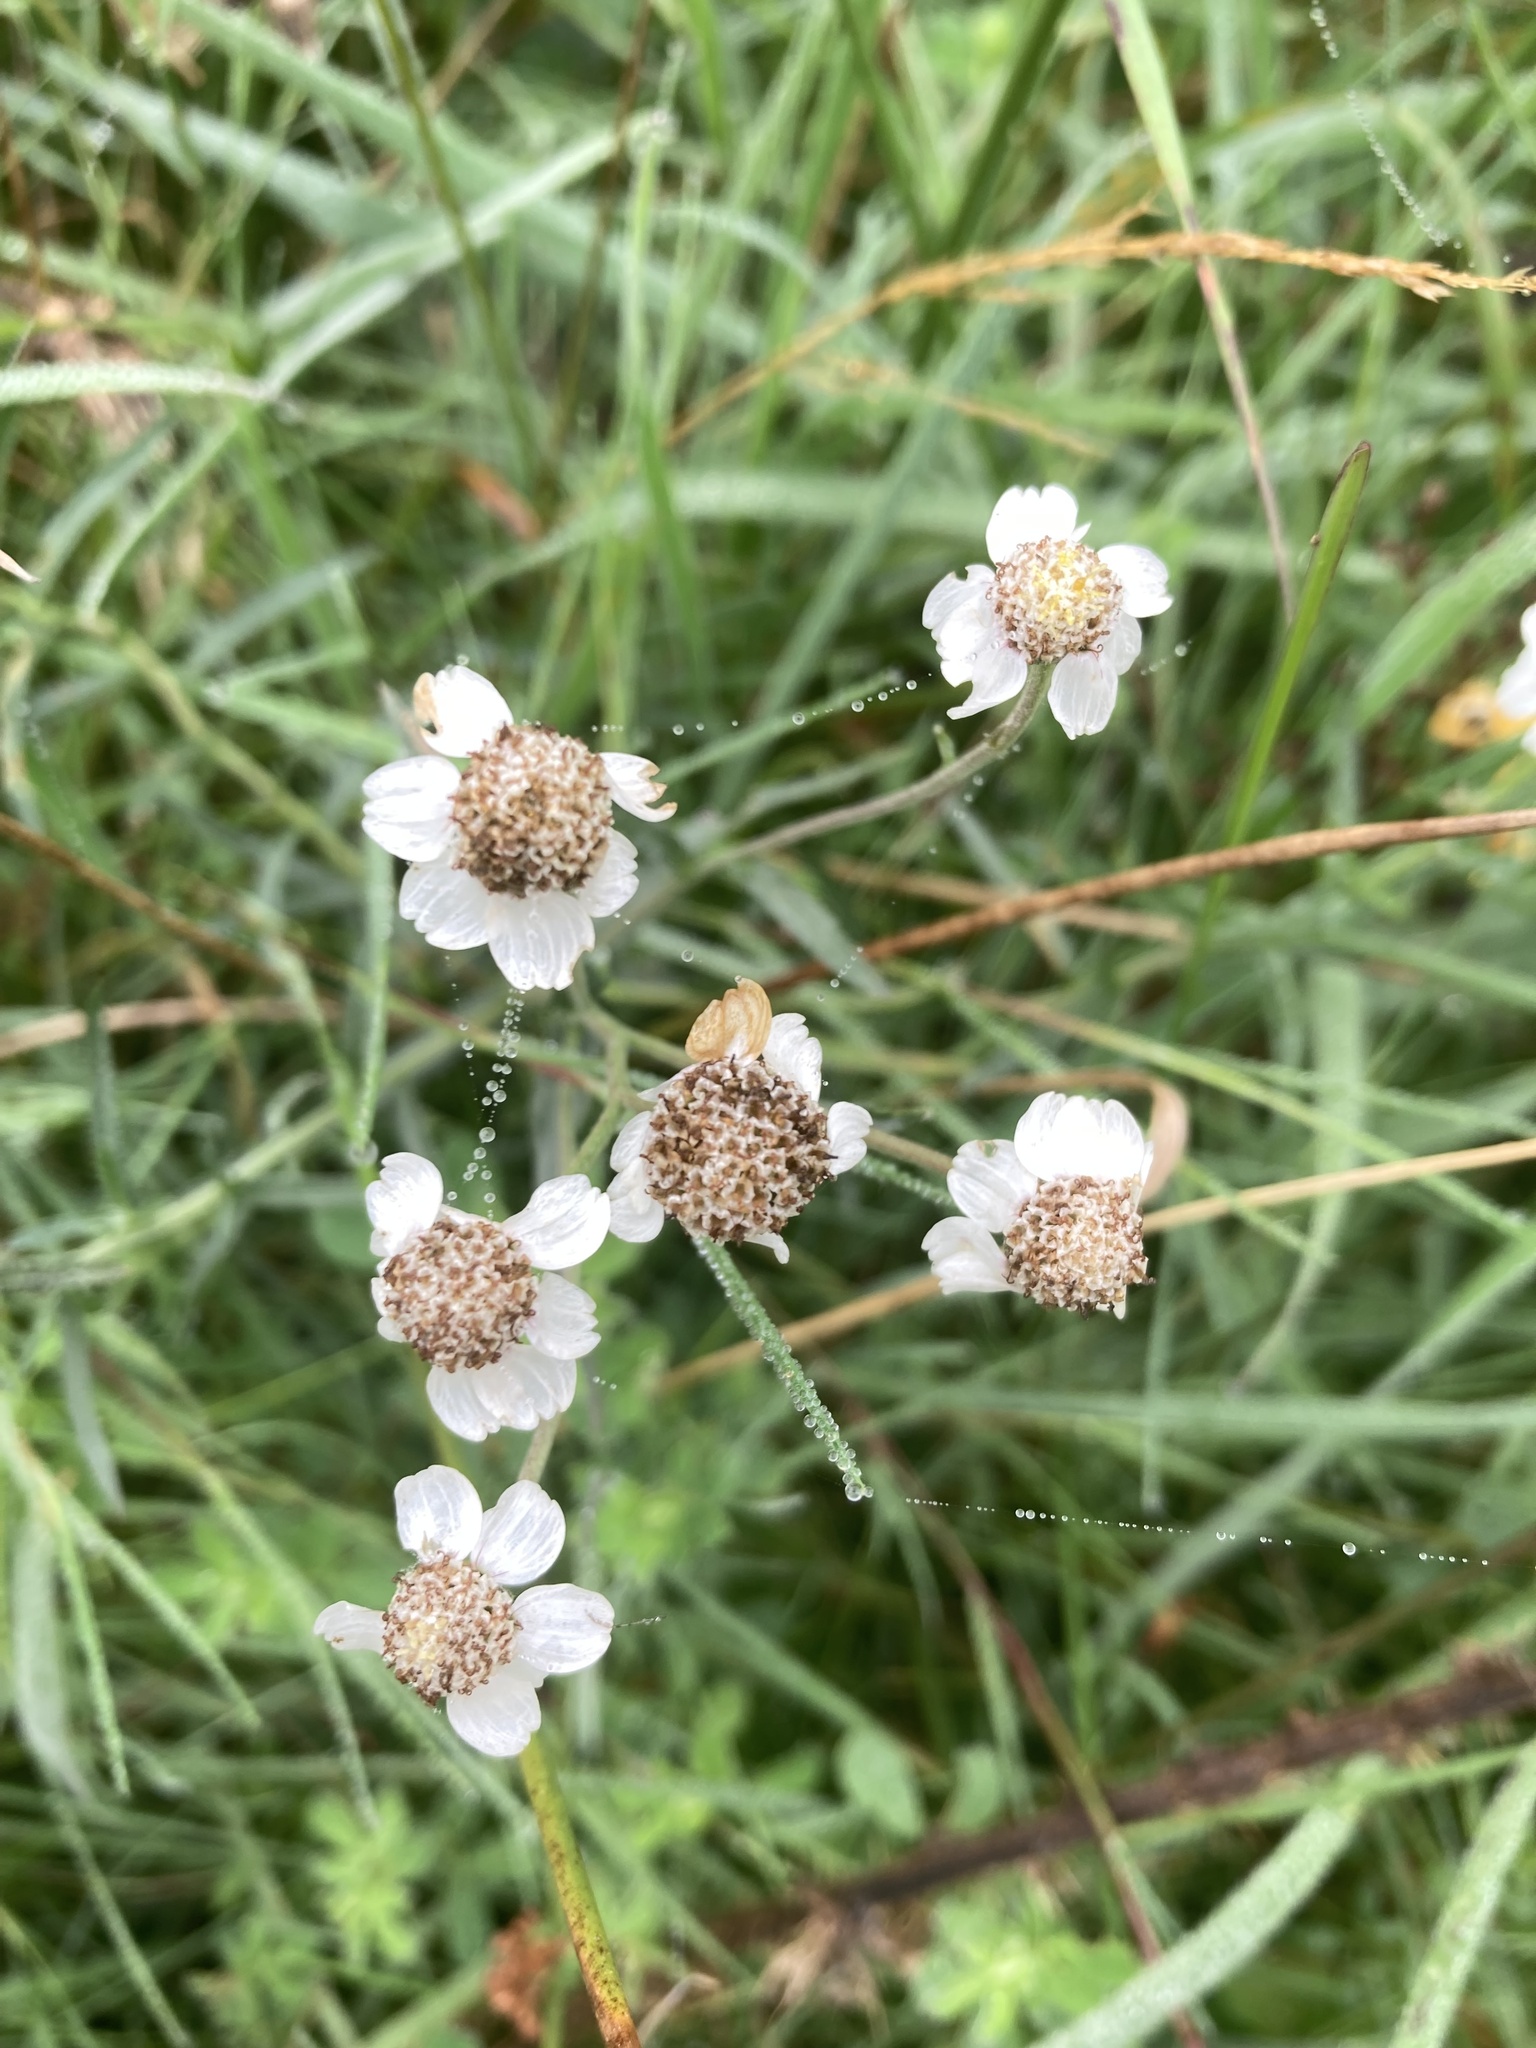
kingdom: Plantae
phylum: Tracheophyta
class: Magnoliopsida
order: Asterales
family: Asteraceae
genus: Achillea
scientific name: Achillea ptarmica
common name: Sneezeweed
